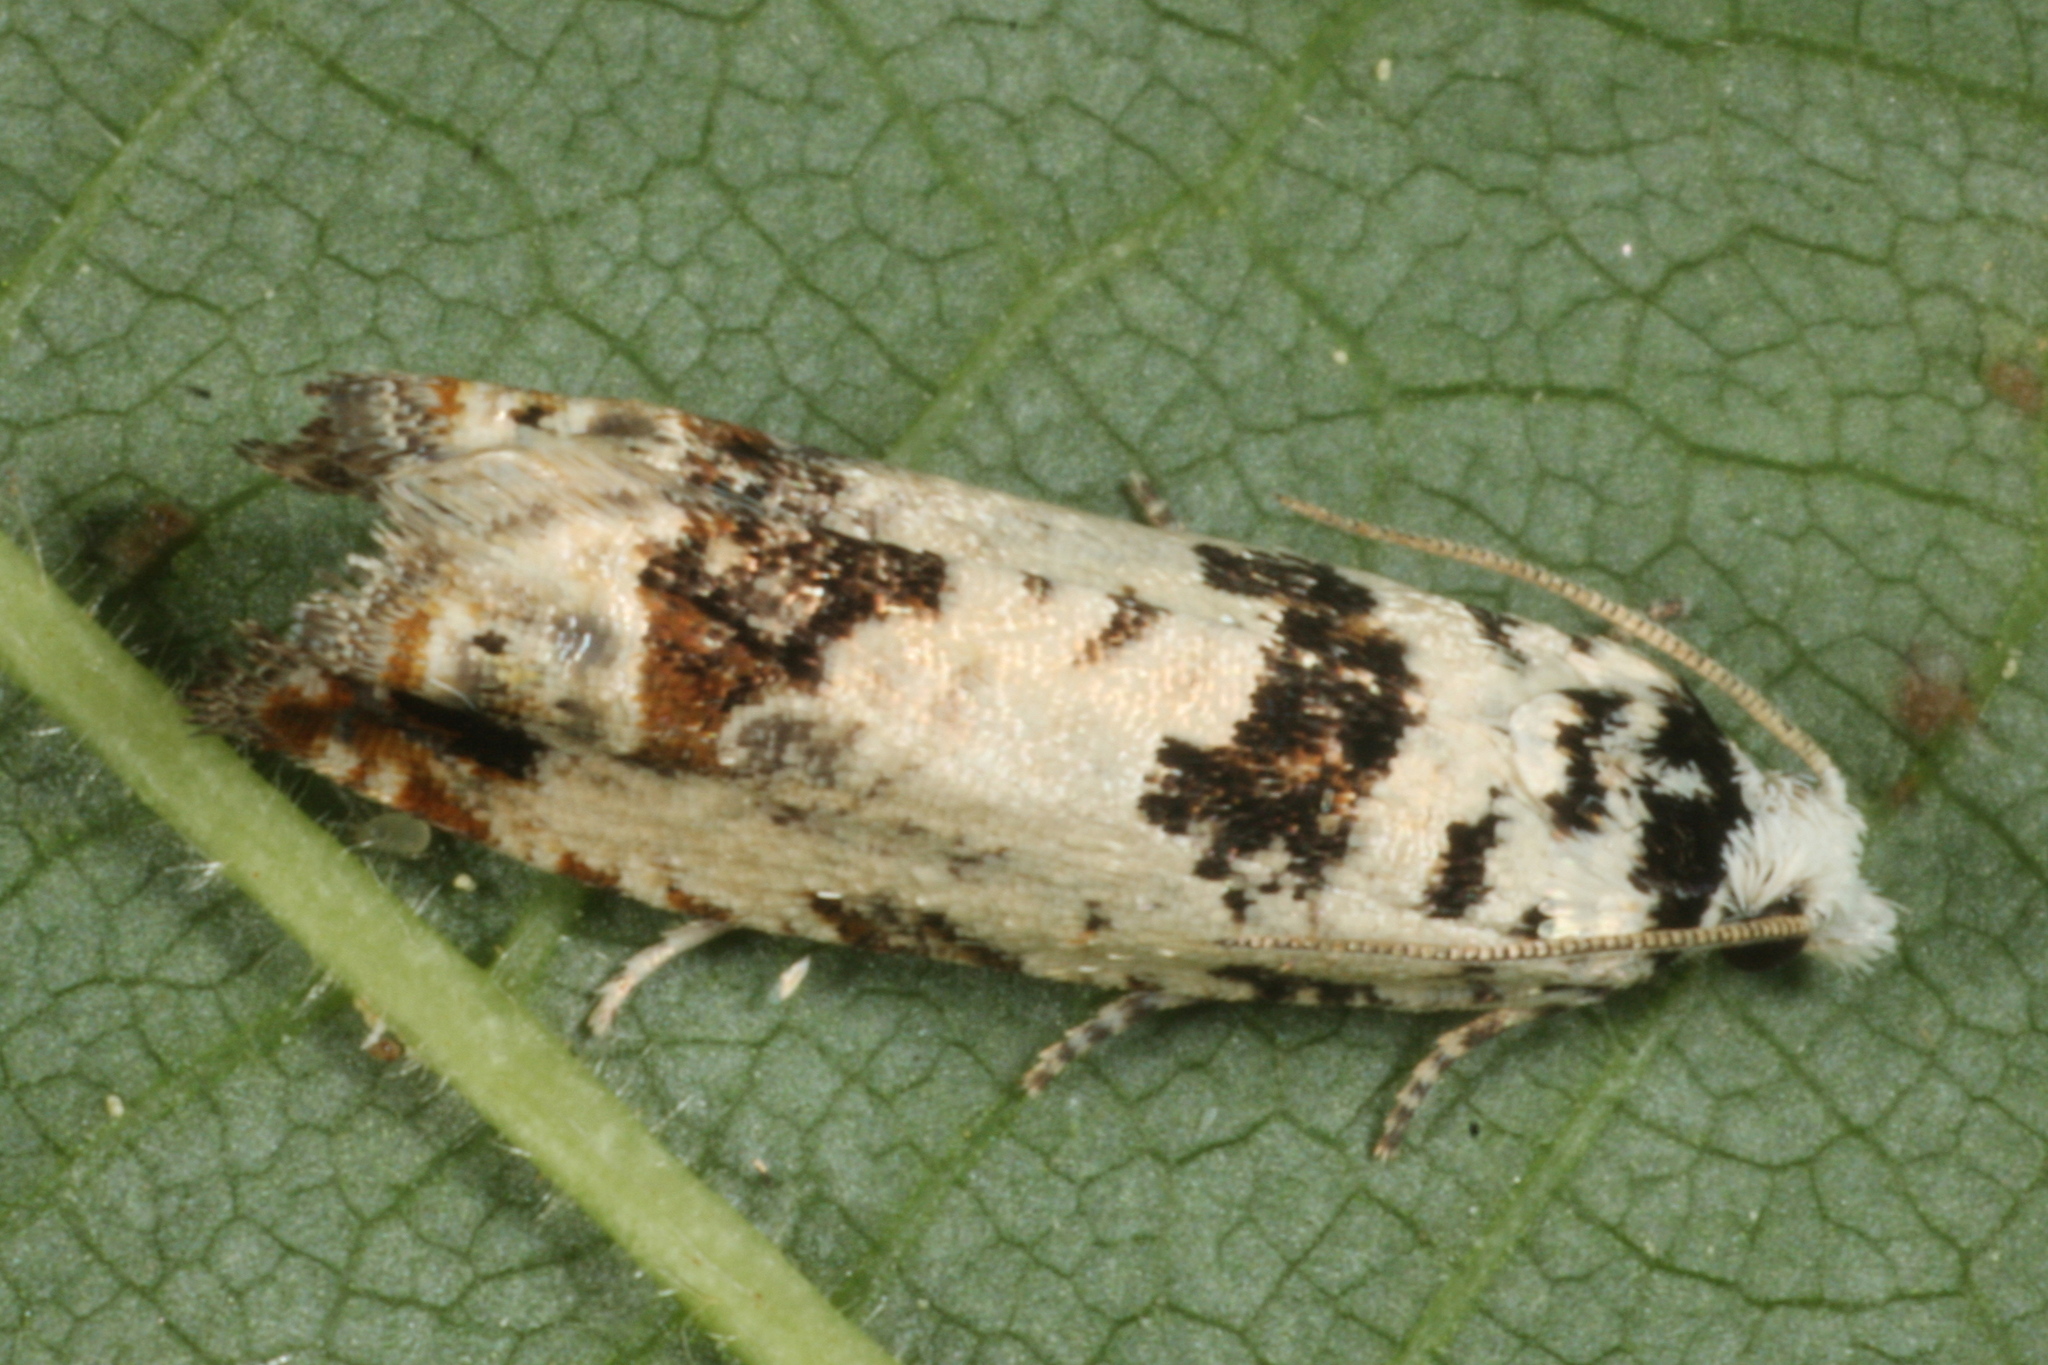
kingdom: Animalia
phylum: Arthropoda
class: Insecta
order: Lepidoptera
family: Tortricidae
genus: Eucosma
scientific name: Eucosma campoliliana
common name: Marbled bell
